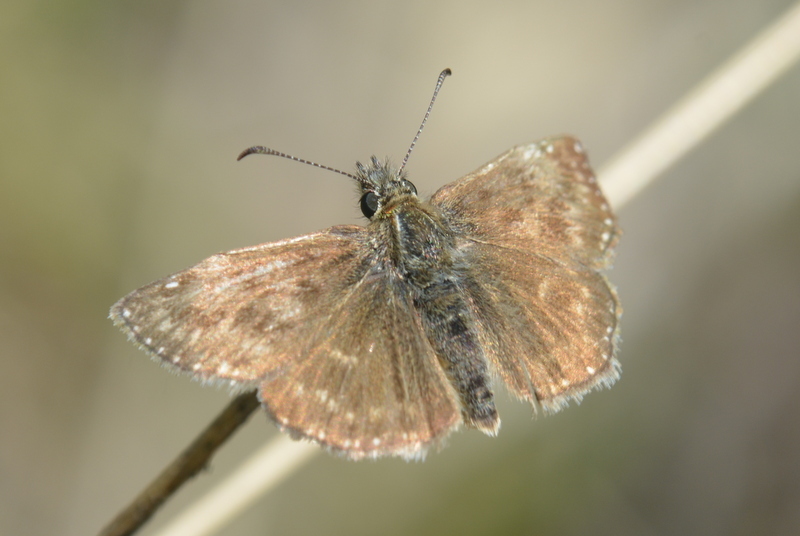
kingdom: Animalia
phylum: Arthropoda
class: Insecta
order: Lepidoptera
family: Hesperiidae
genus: Erynnis
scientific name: Erynnis tages
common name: Dingy skipper
